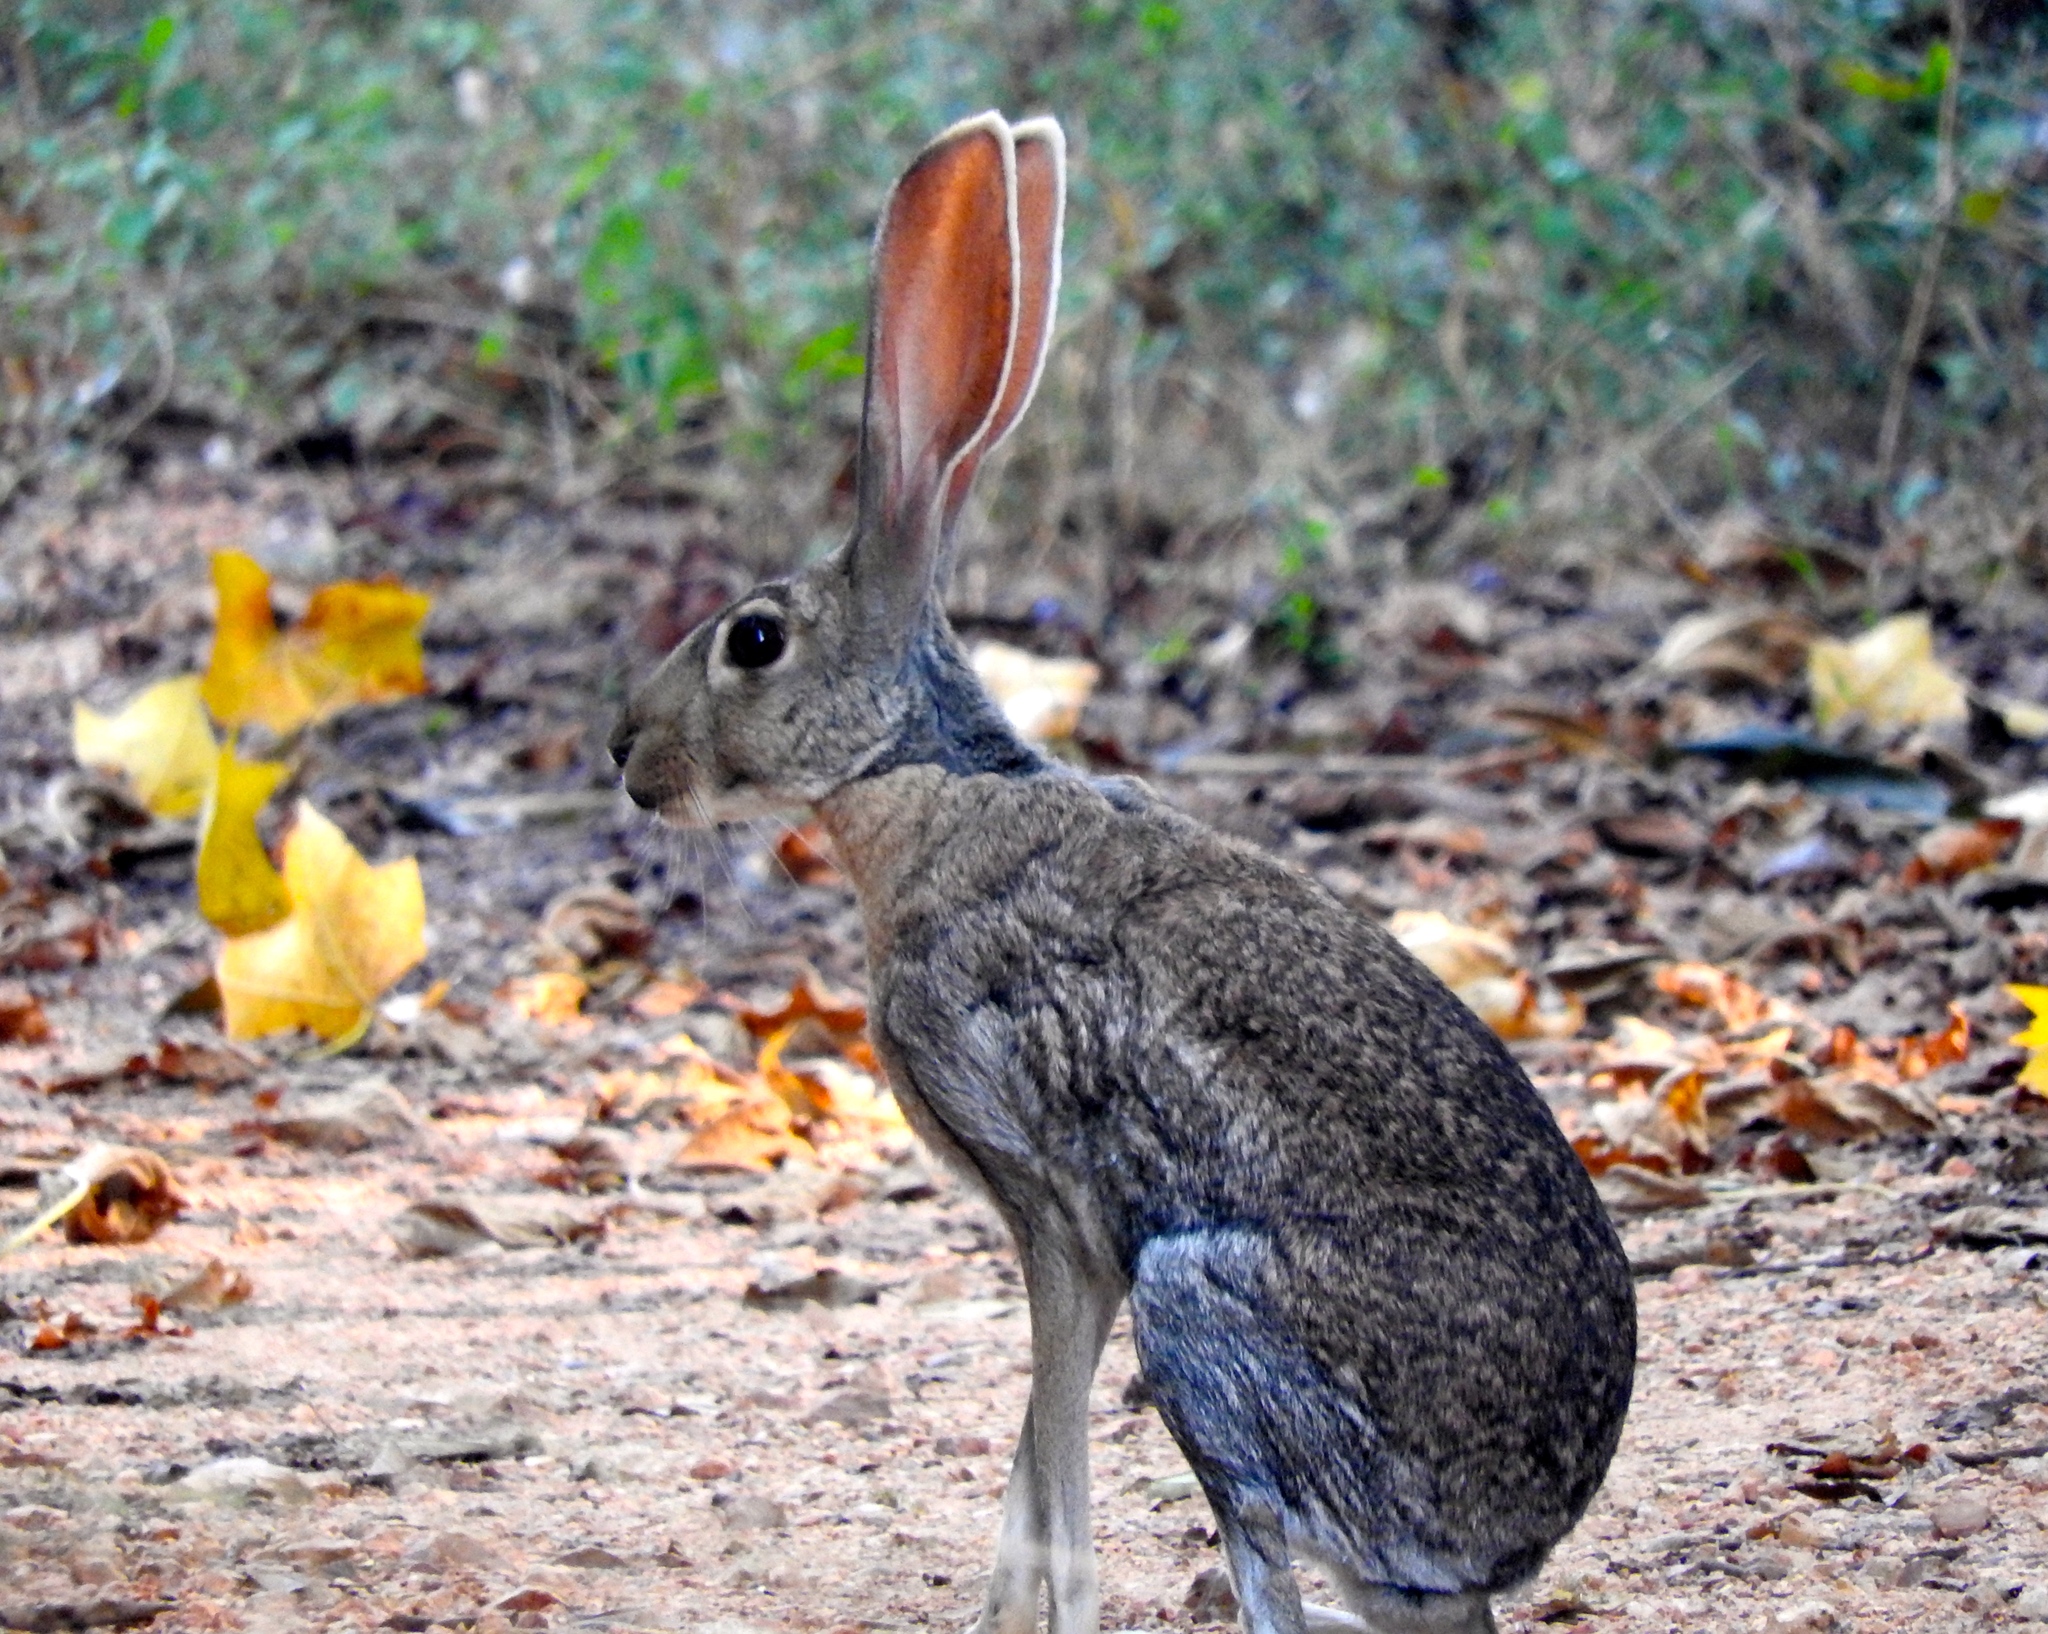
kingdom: Animalia
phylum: Chordata
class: Mammalia
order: Lagomorpha
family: Leporidae
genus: Lepus
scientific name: Lepus alleni
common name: Antelope jackrabbit
